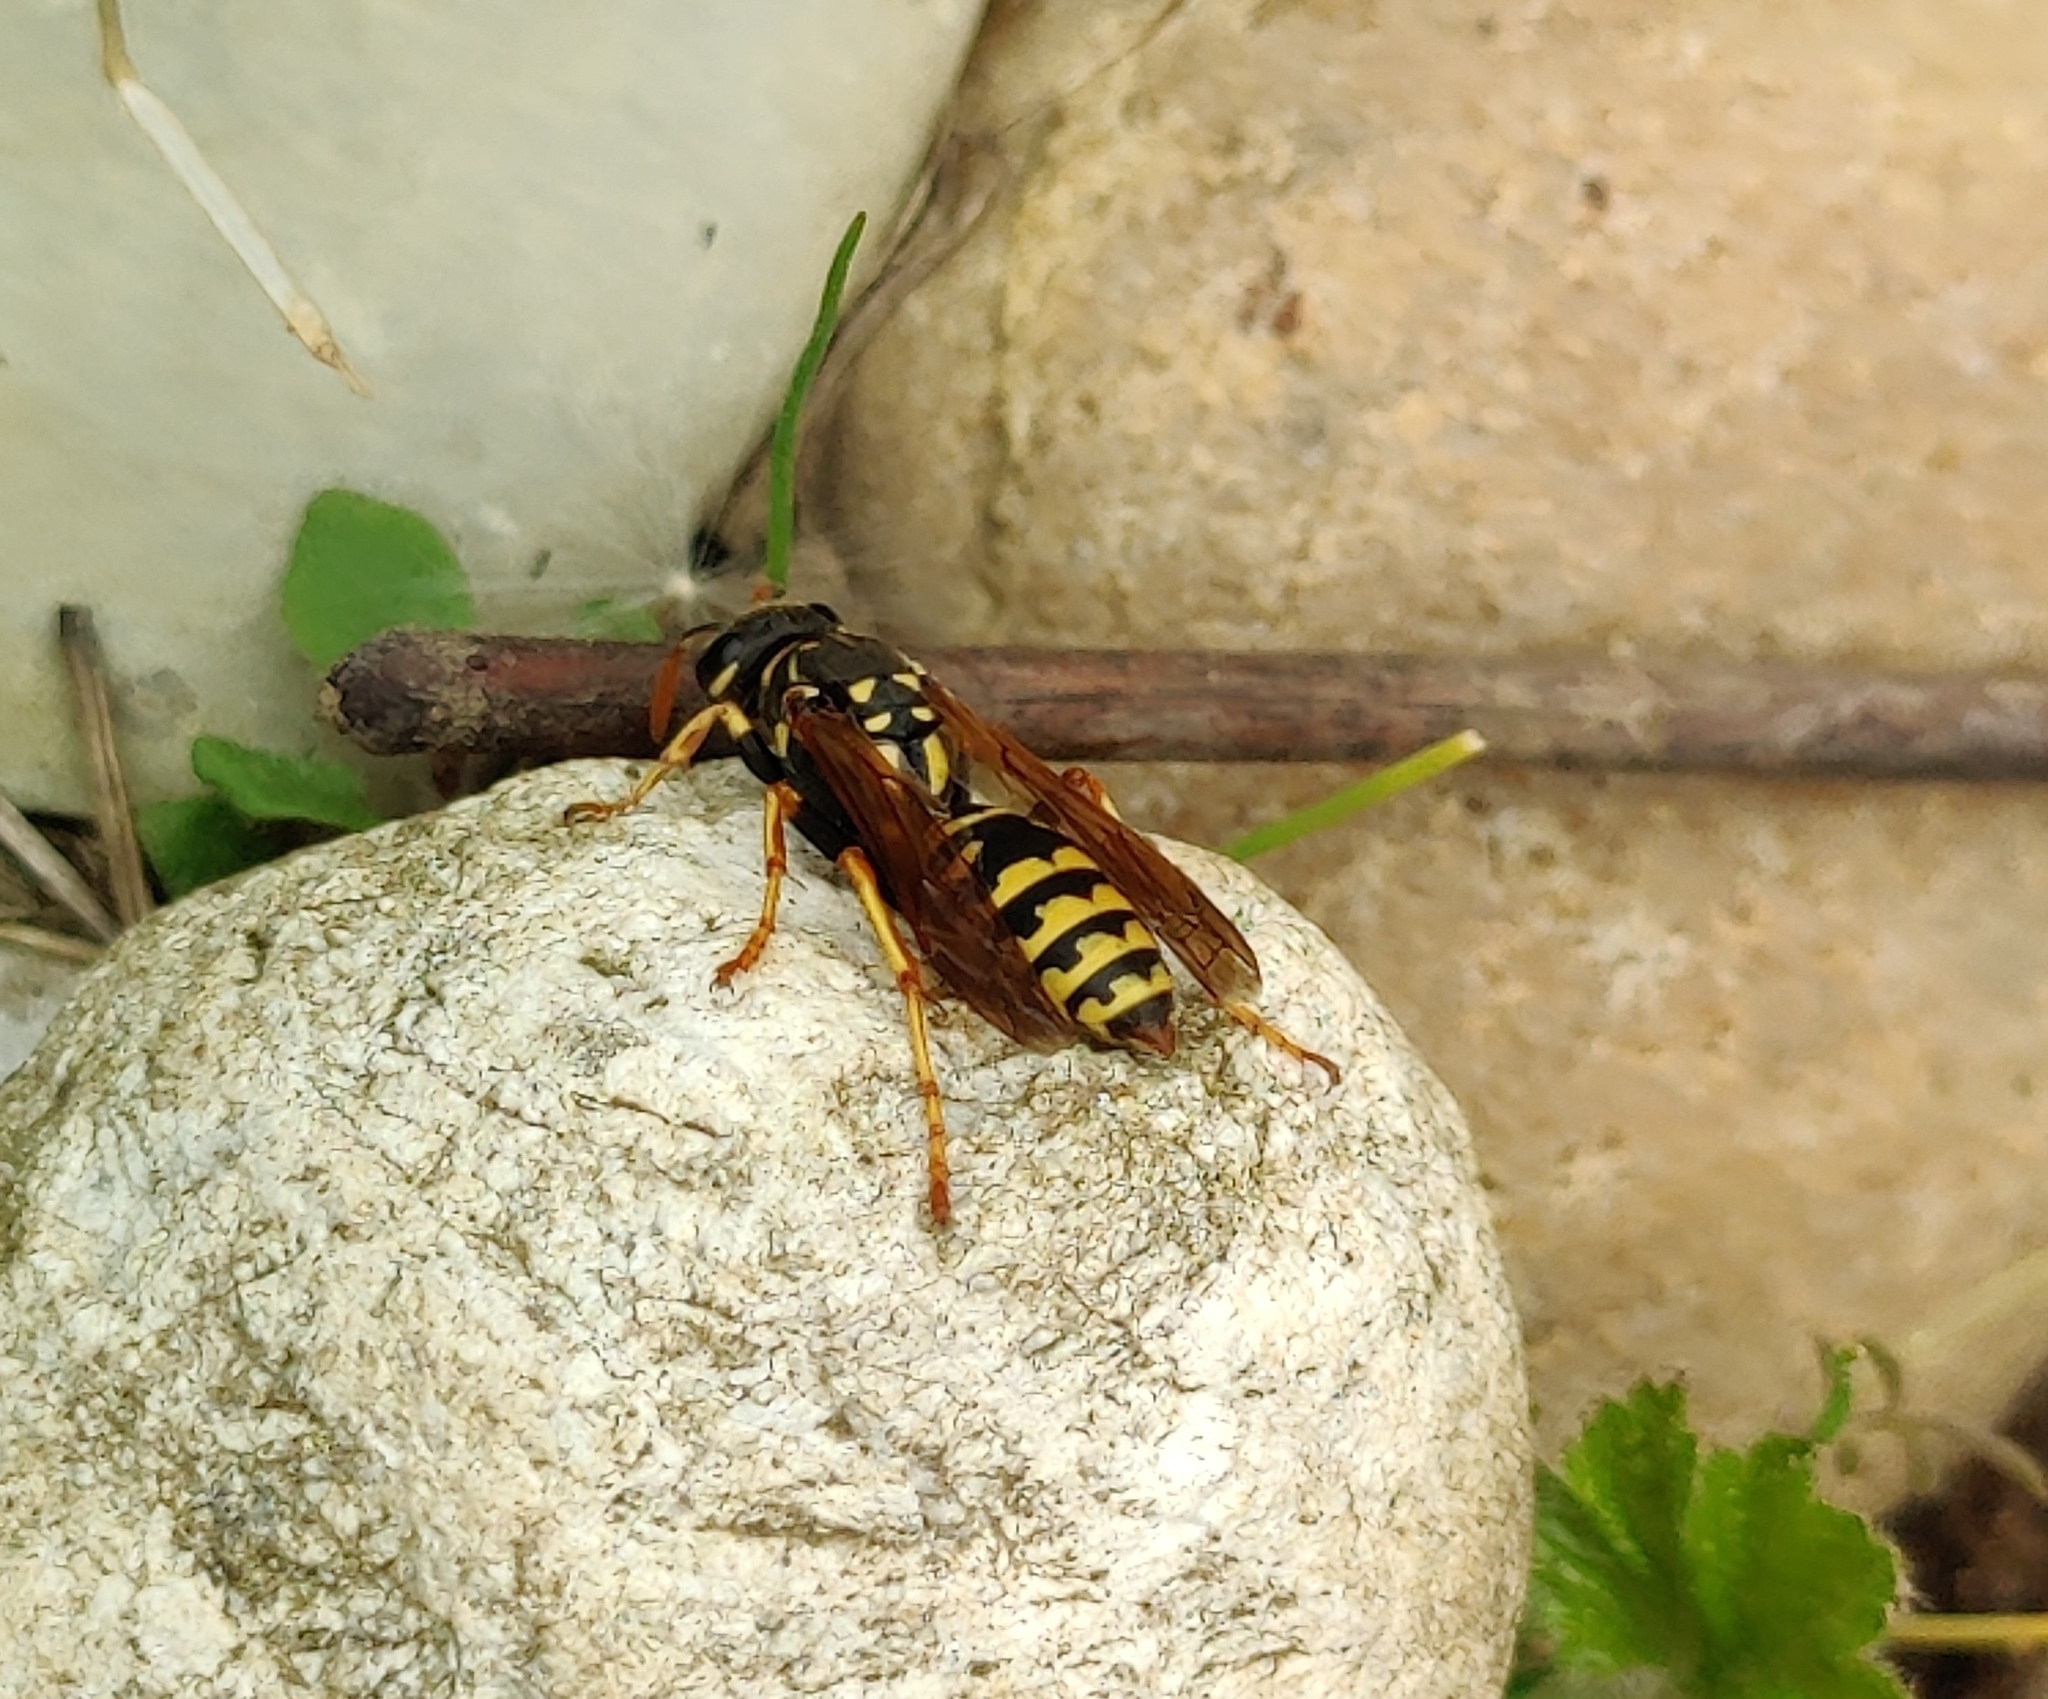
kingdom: Animalia
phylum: Arthropoda
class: Insecta
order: Hymenoptera
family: Eumenidae
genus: Polistes
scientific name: Polistes dominula
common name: Paper wasp
